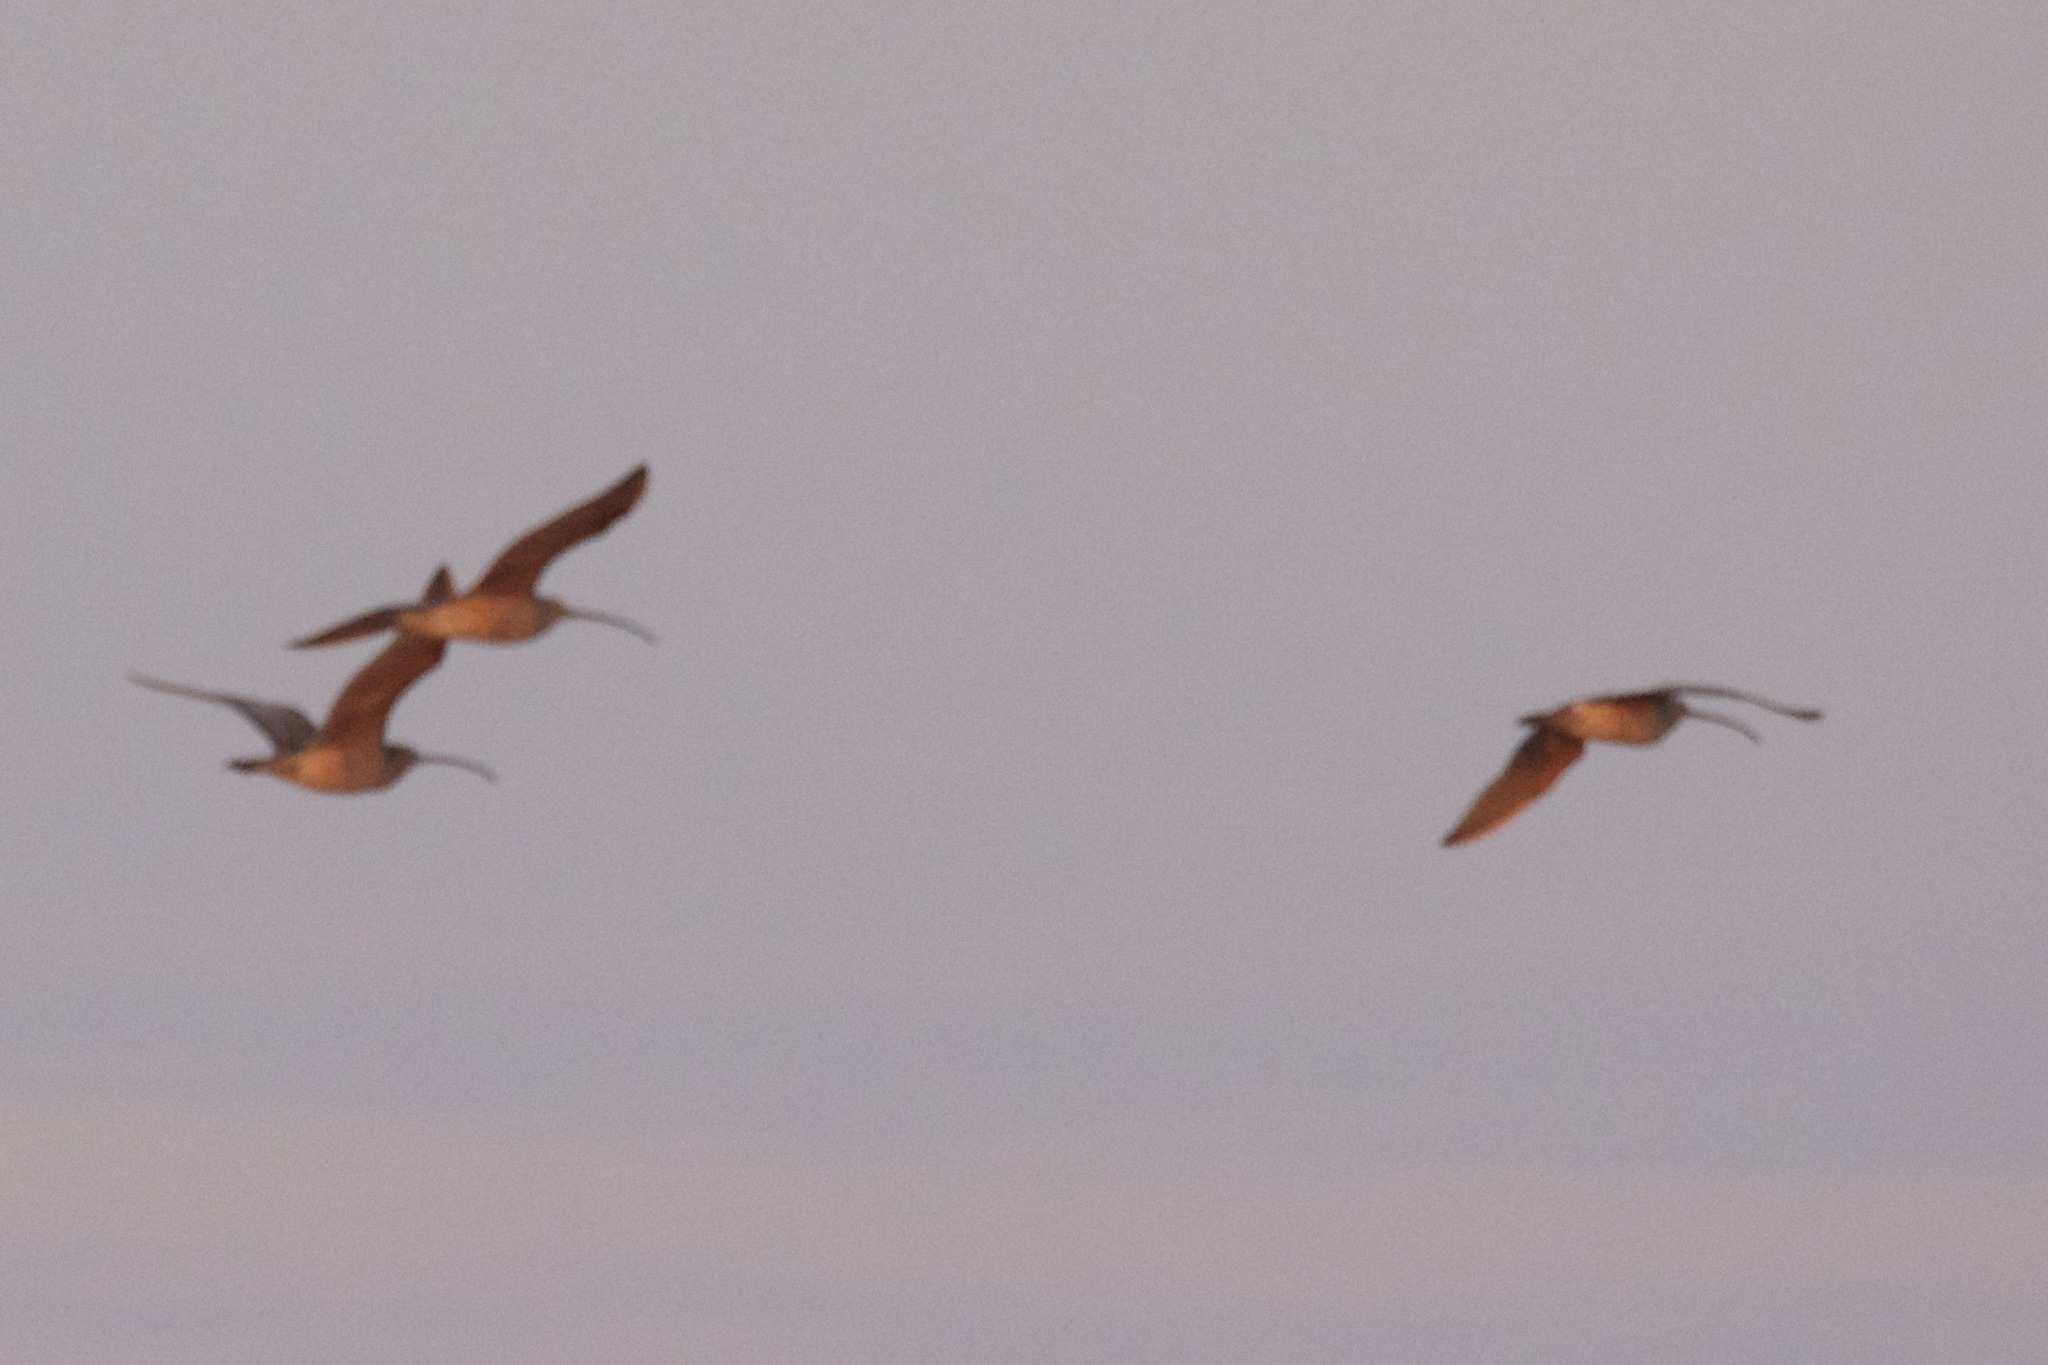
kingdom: Animalia
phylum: Chordata
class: Aves
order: Charadriiformes
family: Scolopacidae
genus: Numenius
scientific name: Numenius americanus
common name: Long-billed curlew
